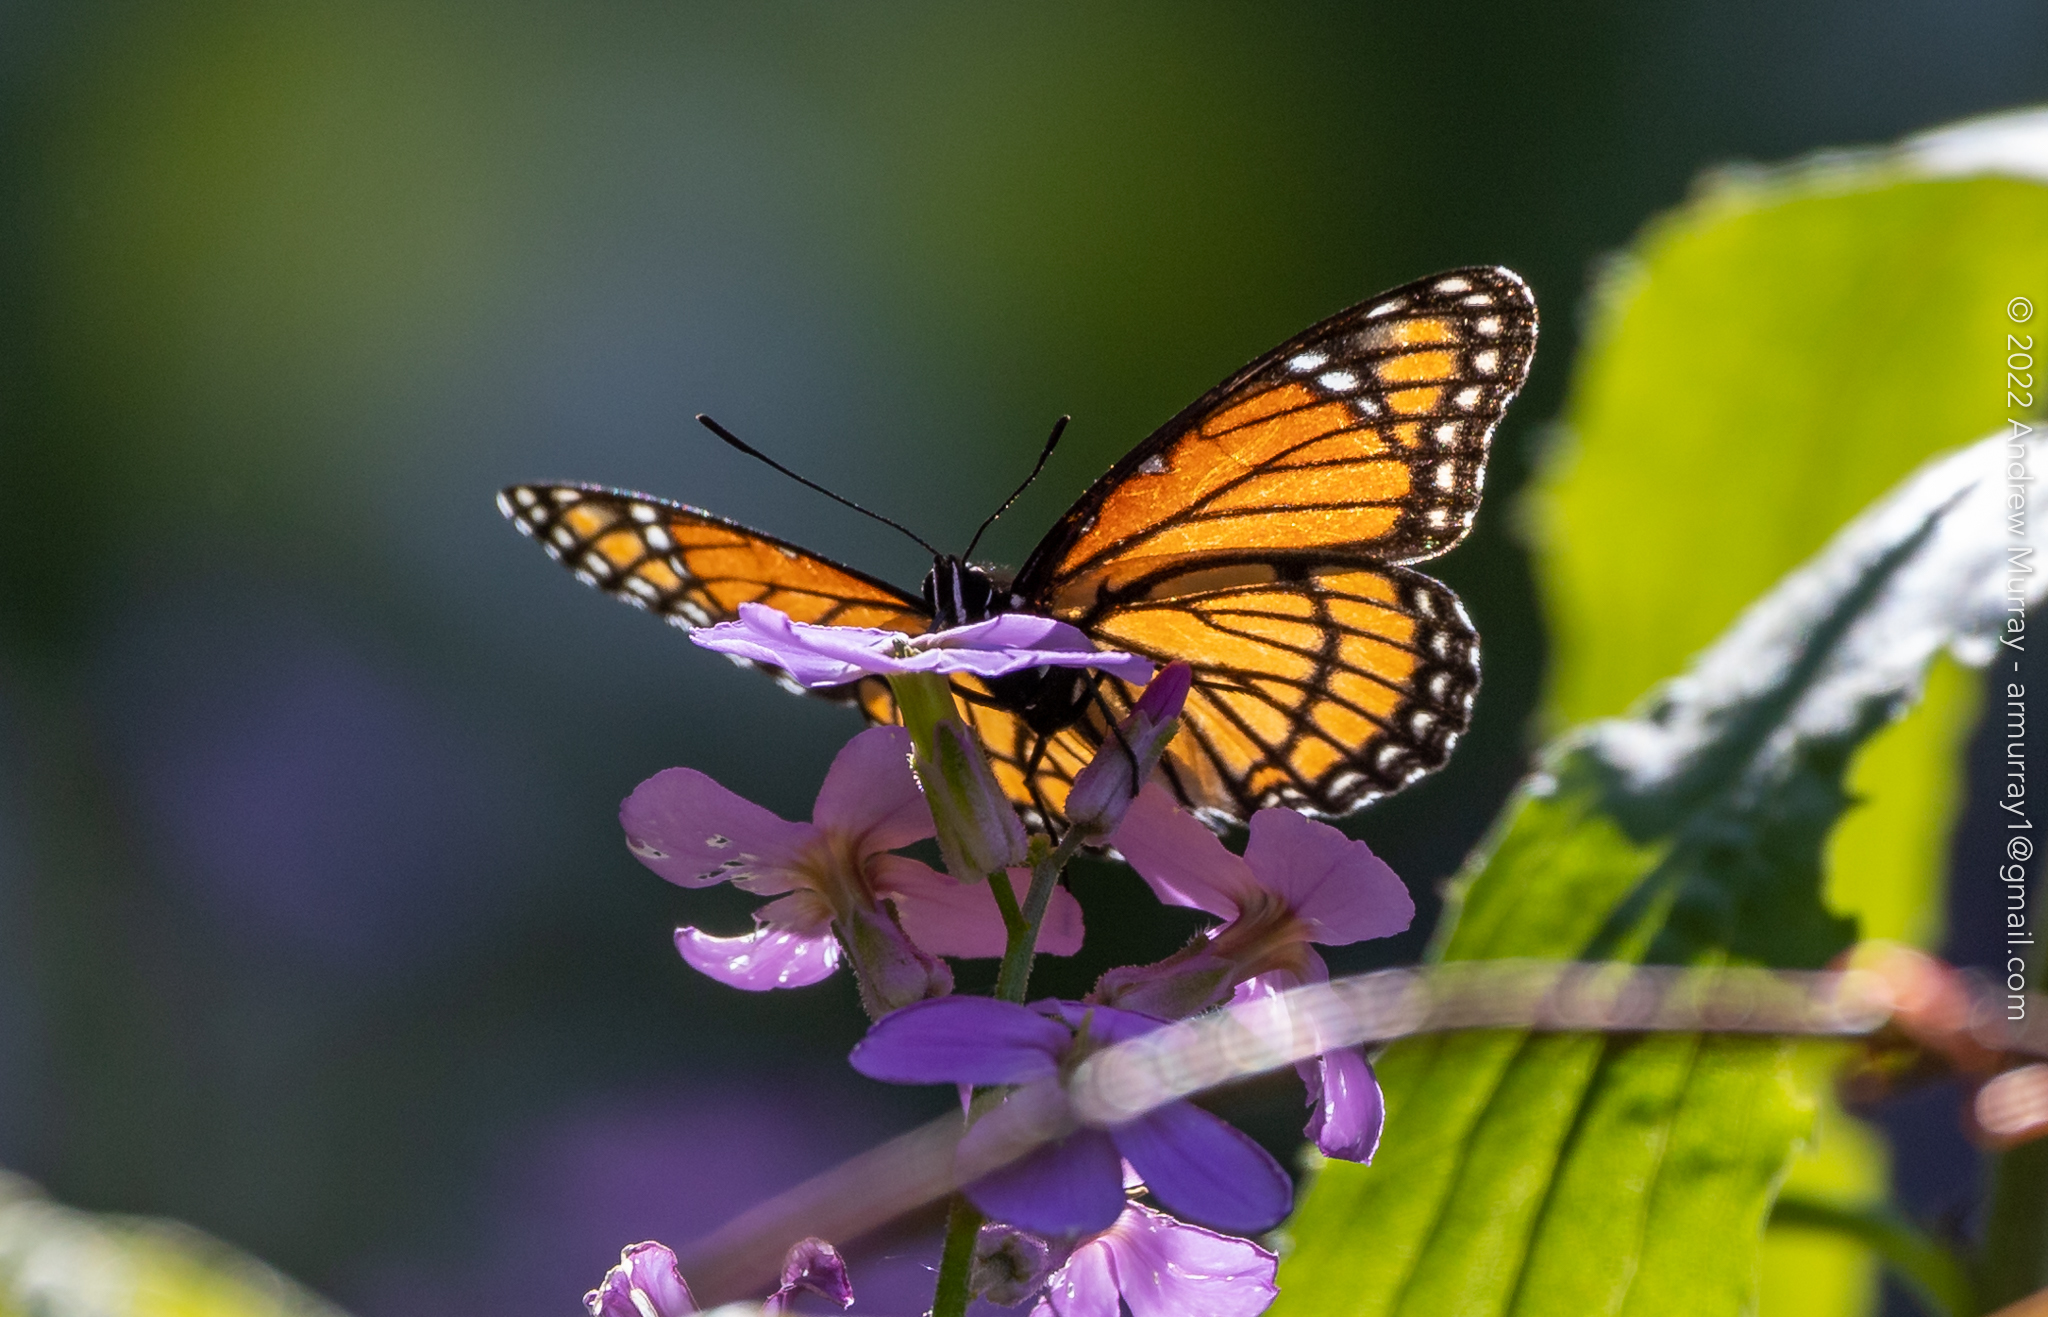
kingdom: Animalia
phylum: Arthropoda
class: Insecta
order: Lepidoptera
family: Nymphalidae
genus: Limenitis
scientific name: Limenitis archippus
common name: Viceroy
